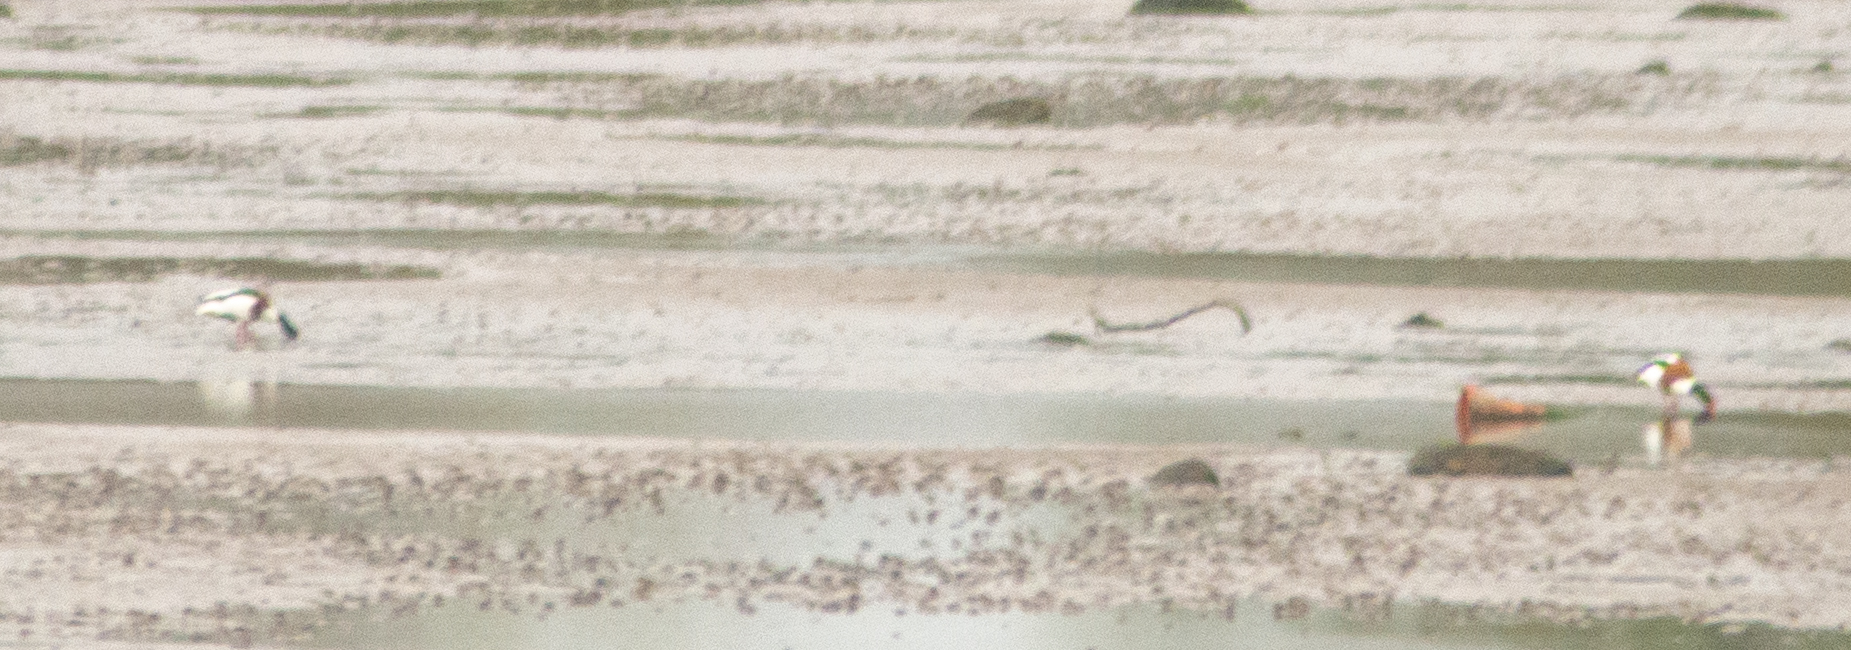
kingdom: Animalia
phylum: Chordata
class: Aves
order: Anseriformes
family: Anatidae
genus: Tadorna
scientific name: Tadorna tadorna
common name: Common shelduck
